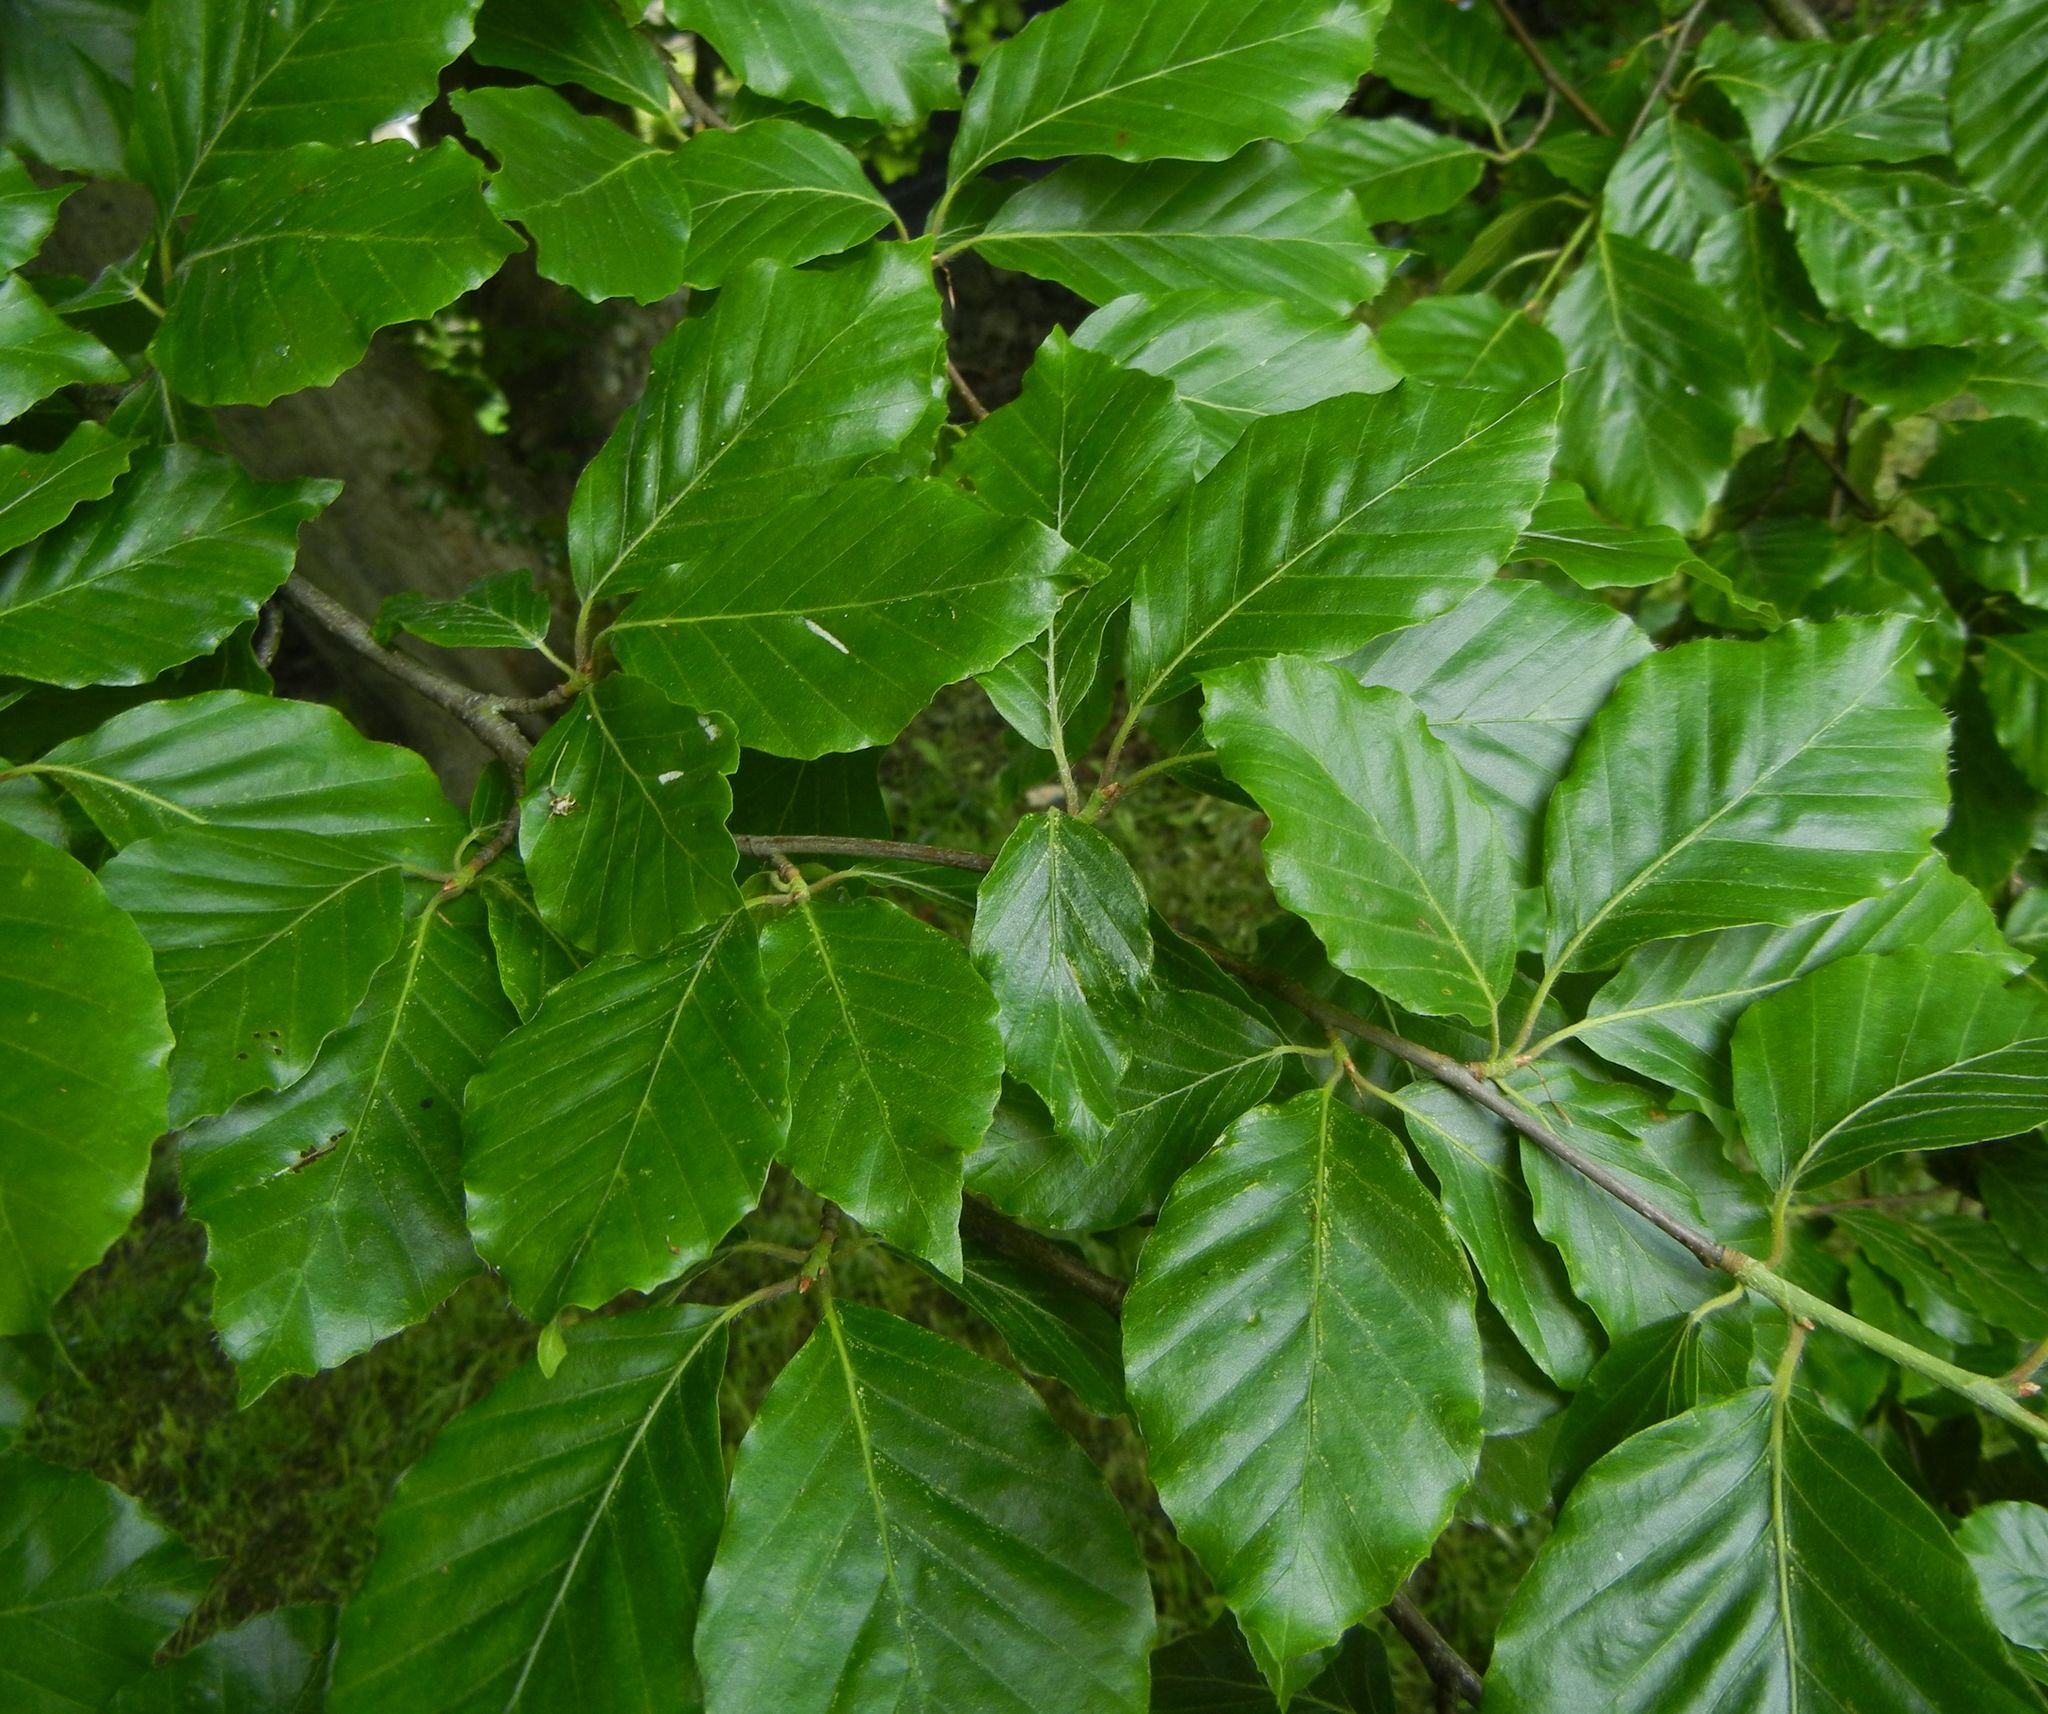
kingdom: Plantae
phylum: Tracheophyta
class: Magnoliopsida
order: Fagales
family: Fagaceae
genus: Fagus
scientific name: Fagus sylvatica
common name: Beech
